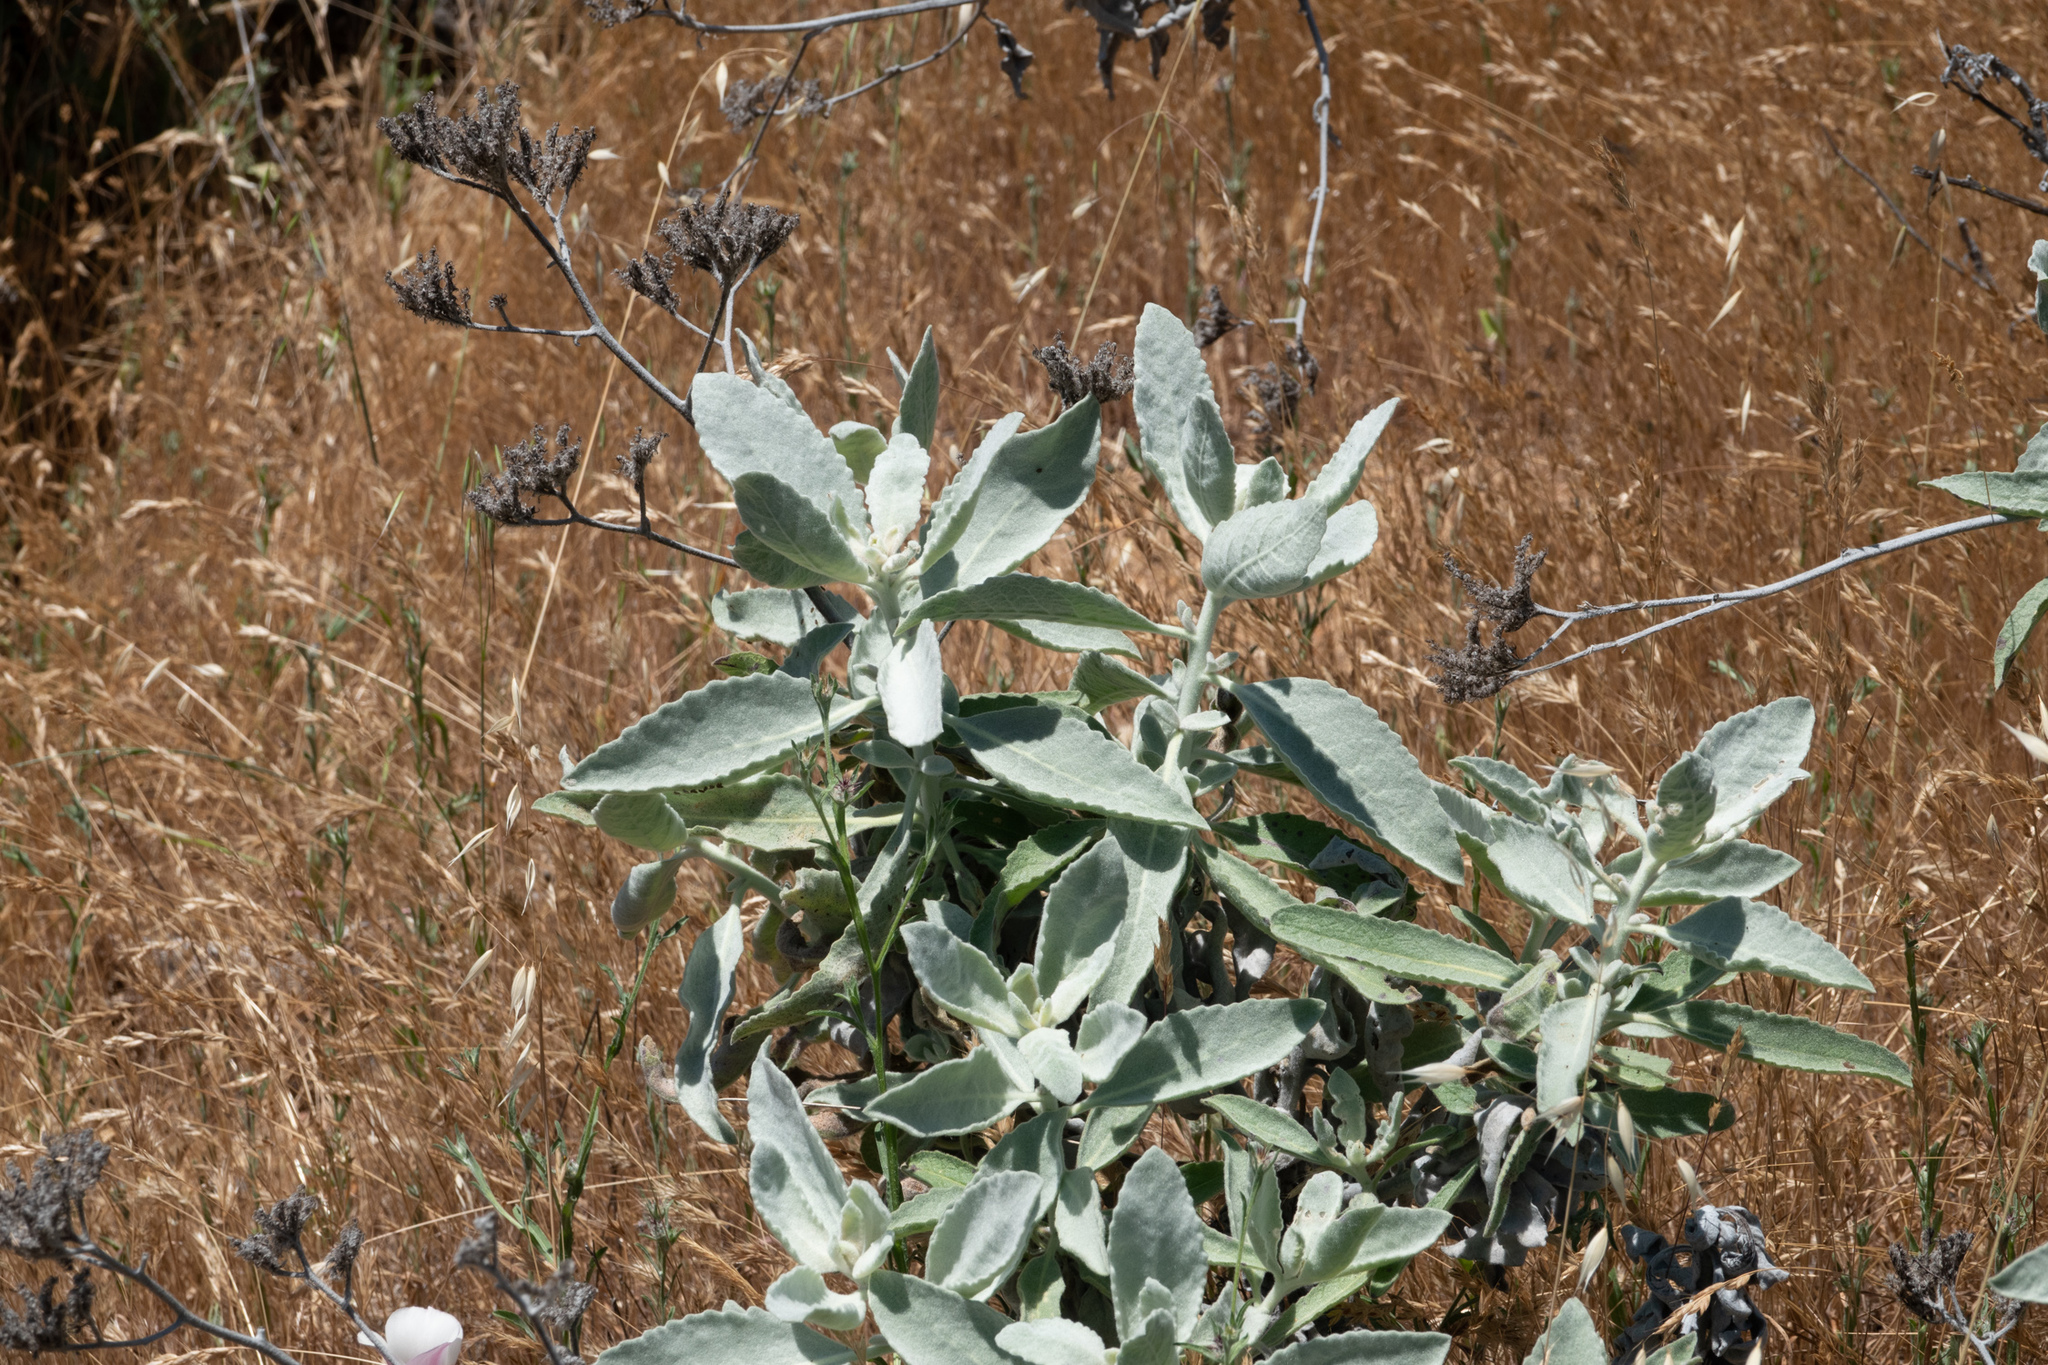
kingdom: Plantae
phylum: Tracheophyta
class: Magnoliopsida
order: Boraginales
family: Namaceae
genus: Eriodictyon
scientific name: Eriodictyon tomentosum
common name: Woolly yerba-santa
